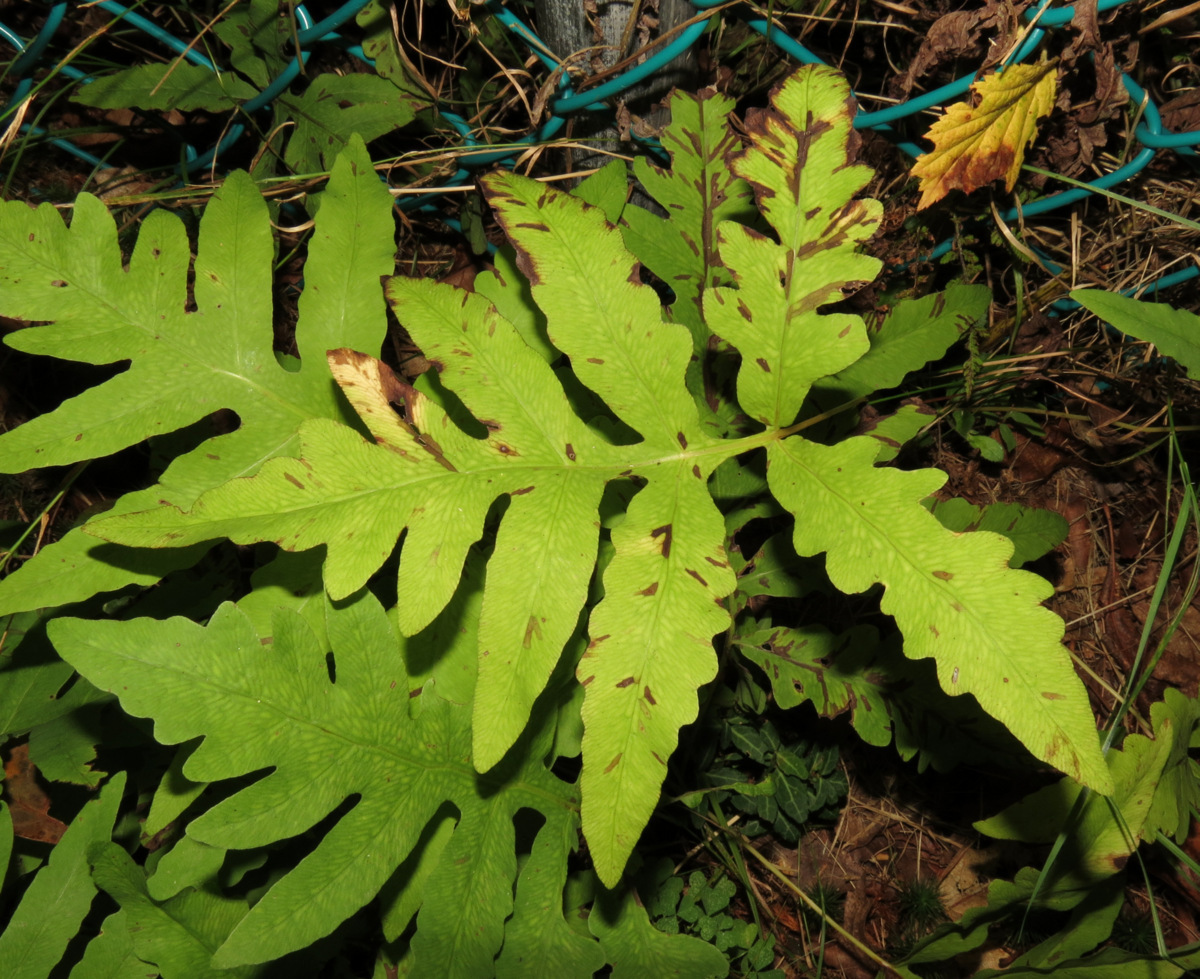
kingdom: Plantae
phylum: Tracheophyta
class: Polypodiopsida
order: Polypodiales
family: Onocleaceae
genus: Onoclea
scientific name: Onoclea sensibilis
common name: Sensitive fern
